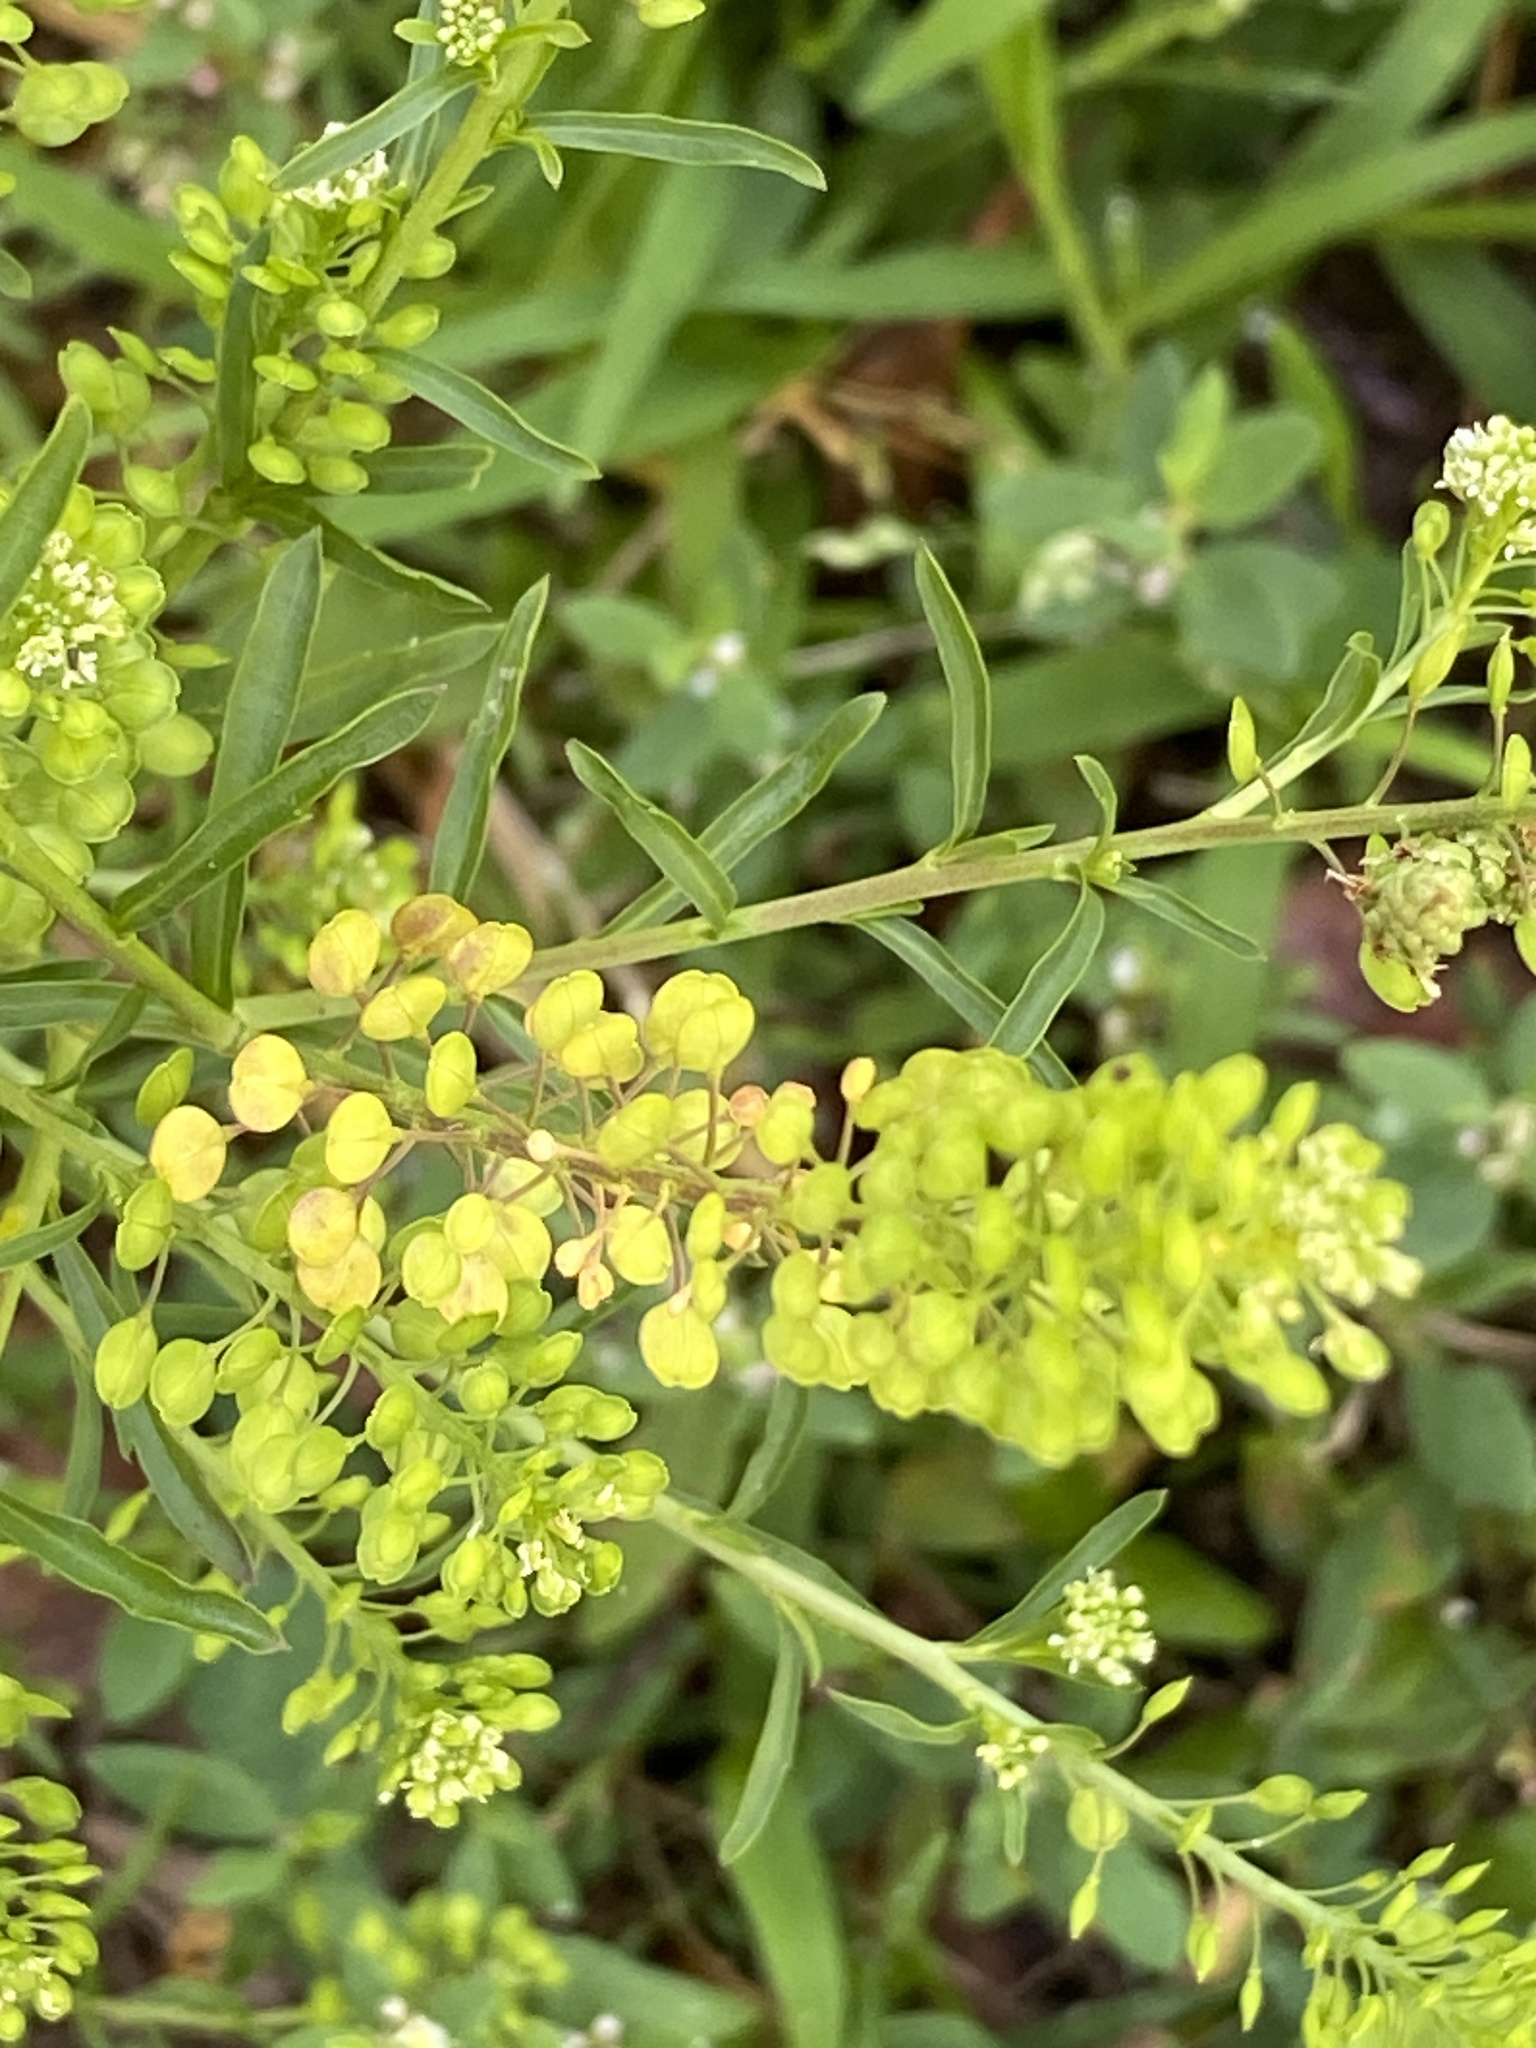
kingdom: Plantae
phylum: Tracheophyta
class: Magnoliopsida
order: Brassicales
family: Brassicaceae
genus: Lepidium
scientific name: Lepidium virginicum
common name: Least pepperwort
